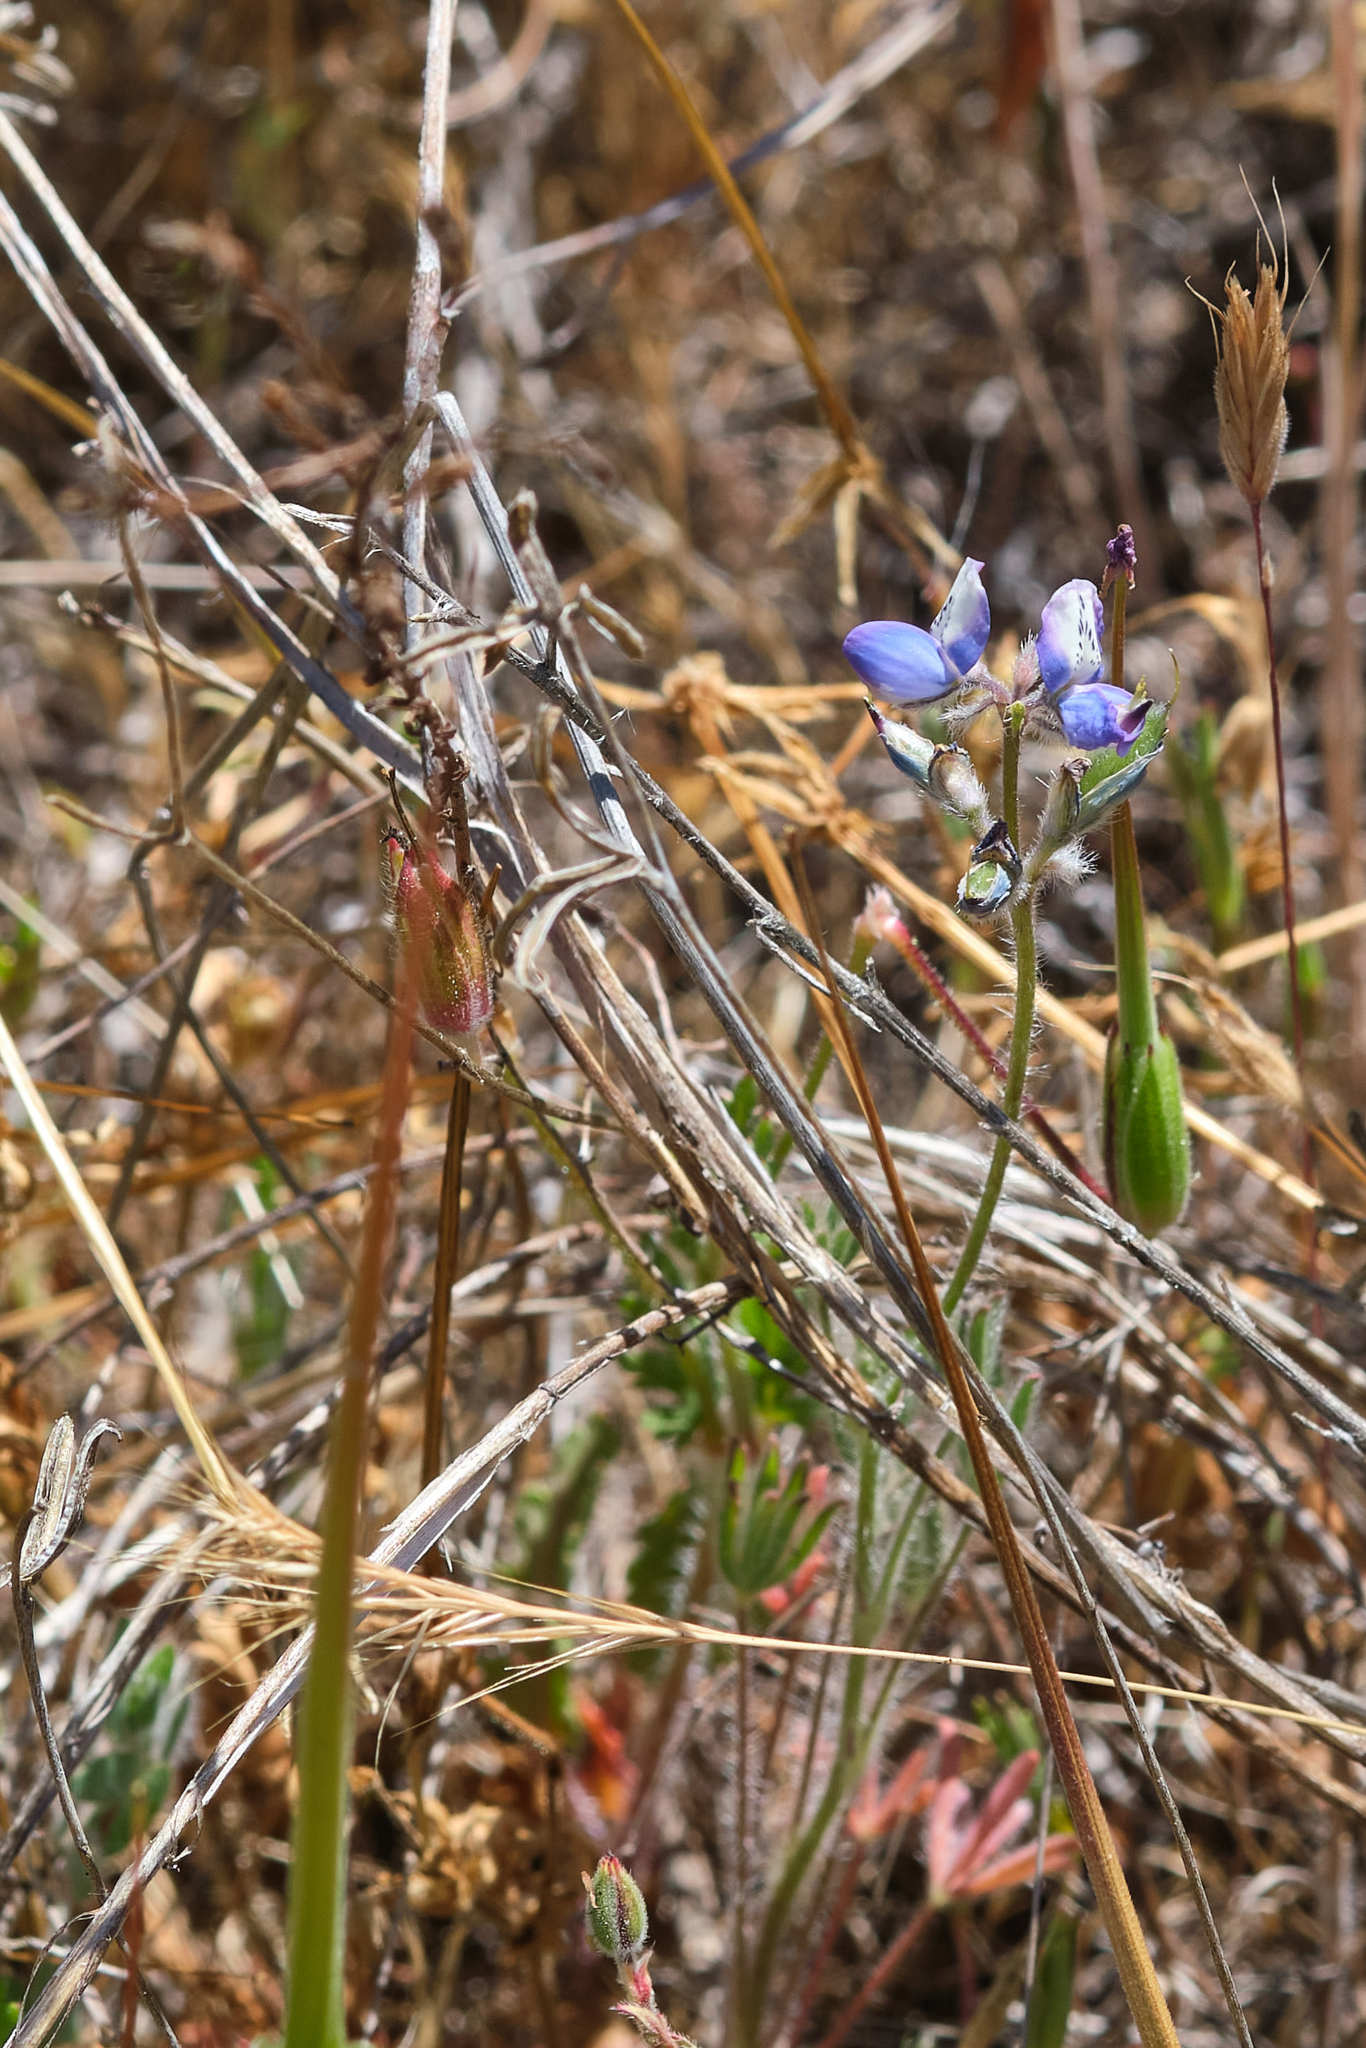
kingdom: Plantae
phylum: Tracheophyta
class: Magnoliopsida
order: Fabales
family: Fabaceae
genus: Lupinus
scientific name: Lupinus bicolor
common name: Miniature lupine
